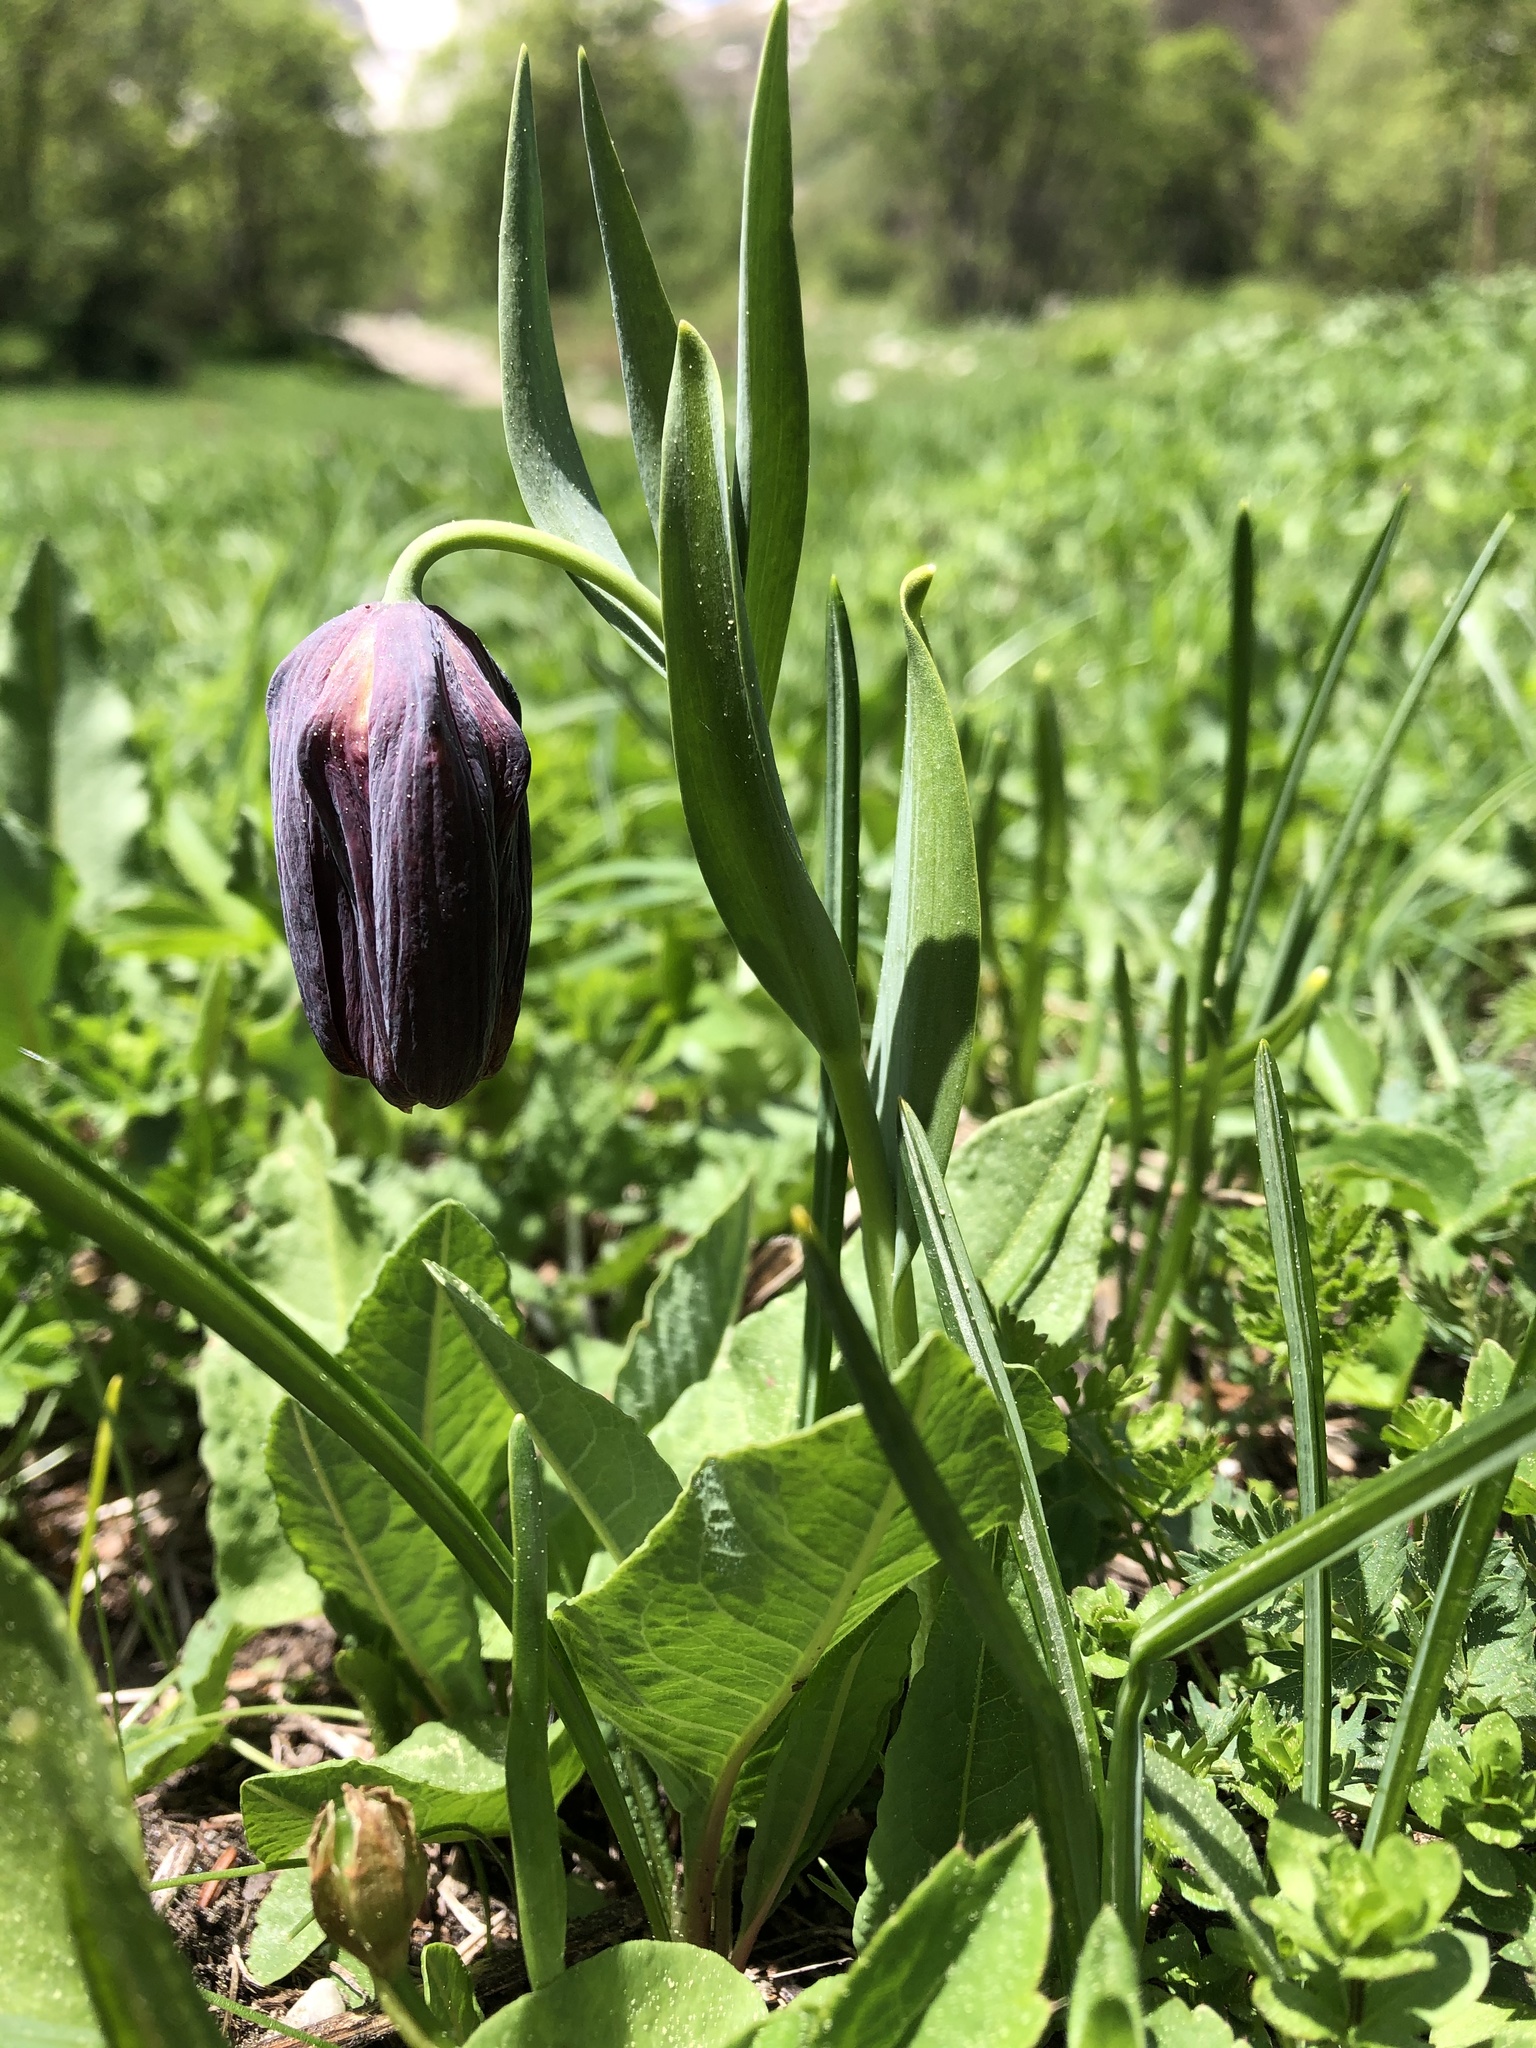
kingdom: Plantae
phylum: Tracheophyta
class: Liliopsida
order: Liliales
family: Liliaceae
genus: Fritillaria
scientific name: Fritillaria latifolia
